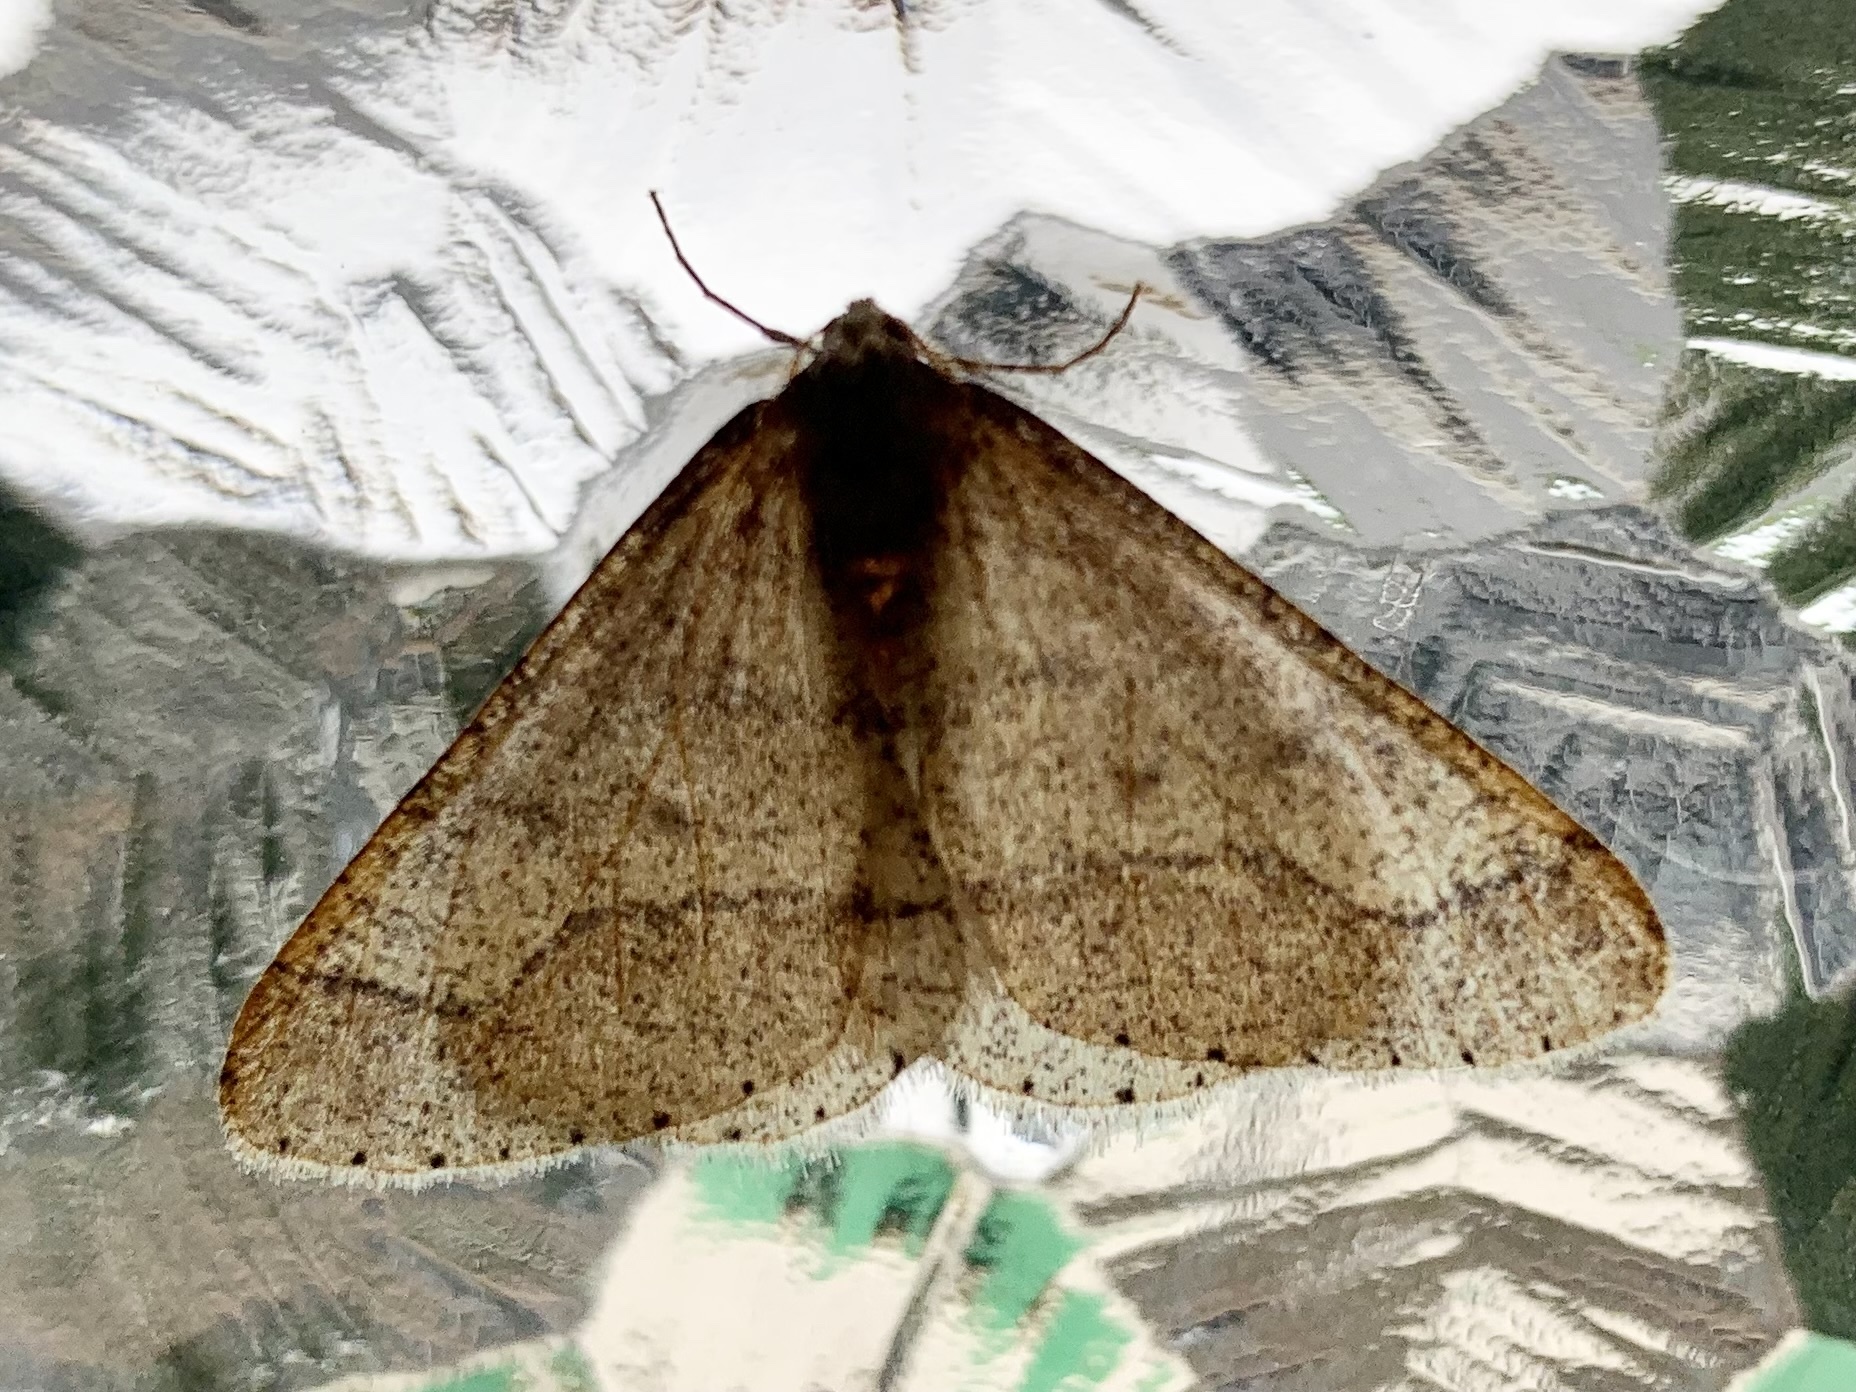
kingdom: Animalia
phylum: Arthropoda
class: Insecta
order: Lepidoptera
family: Geometridae
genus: Agriopis
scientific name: Agriopis marginaria
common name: Dotted border
